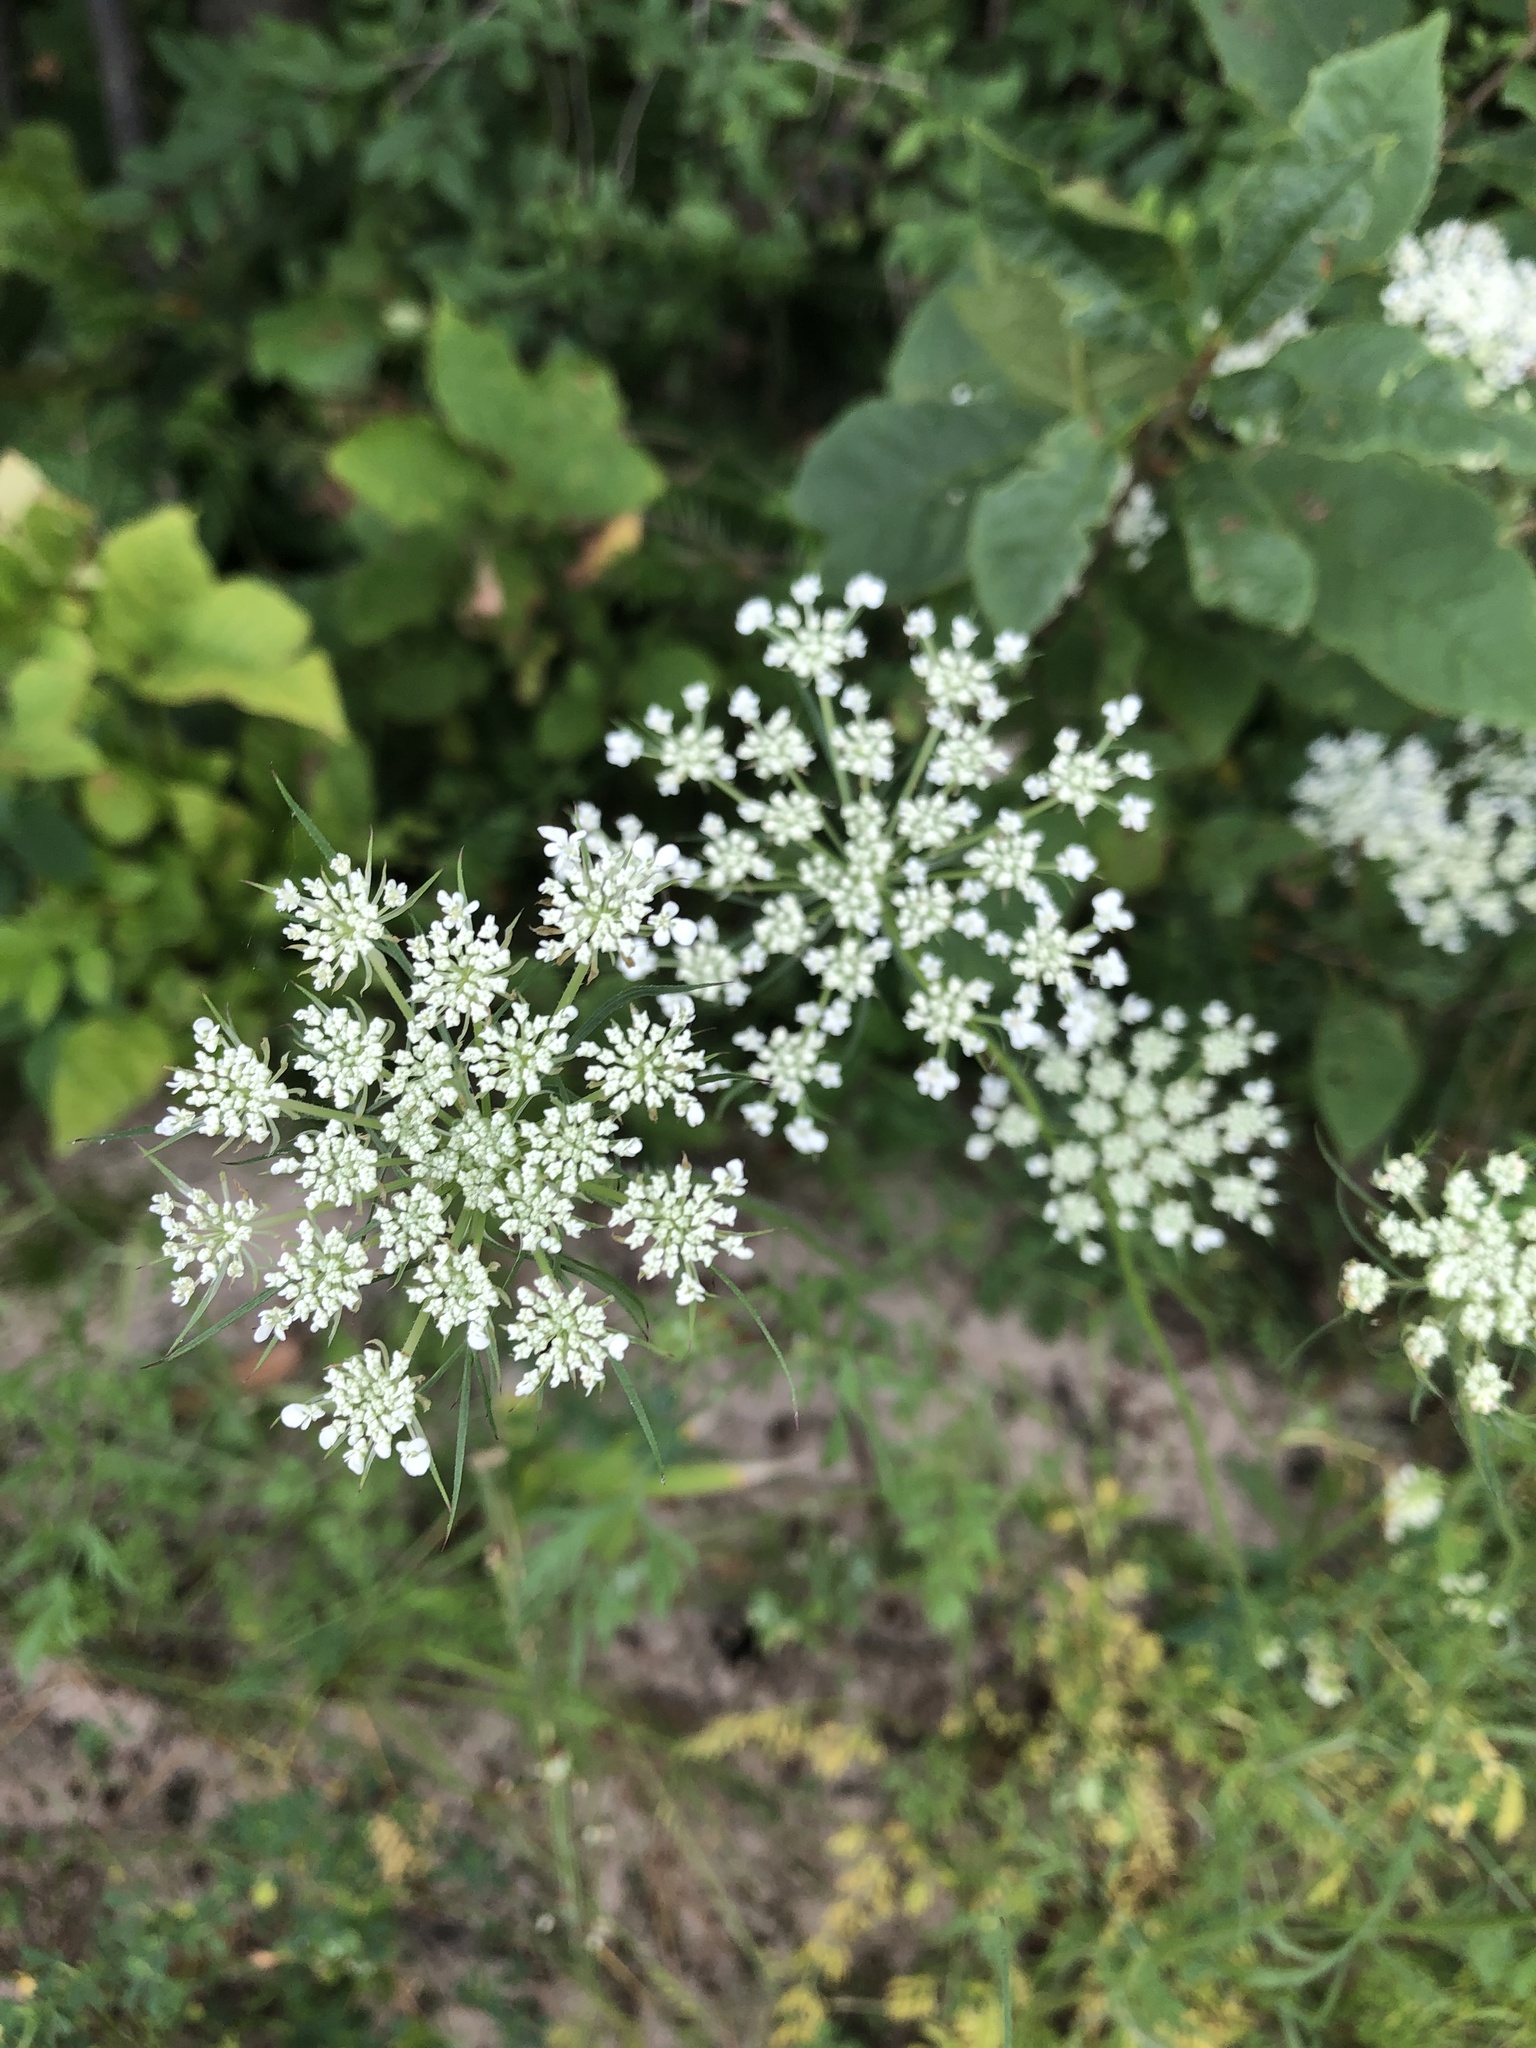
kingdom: Plantae
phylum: Tracheophyta
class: Magnoliopsida
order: Apiales
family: Apiaceae
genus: Daucus
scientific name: Daucus carota
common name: Wild carrot
